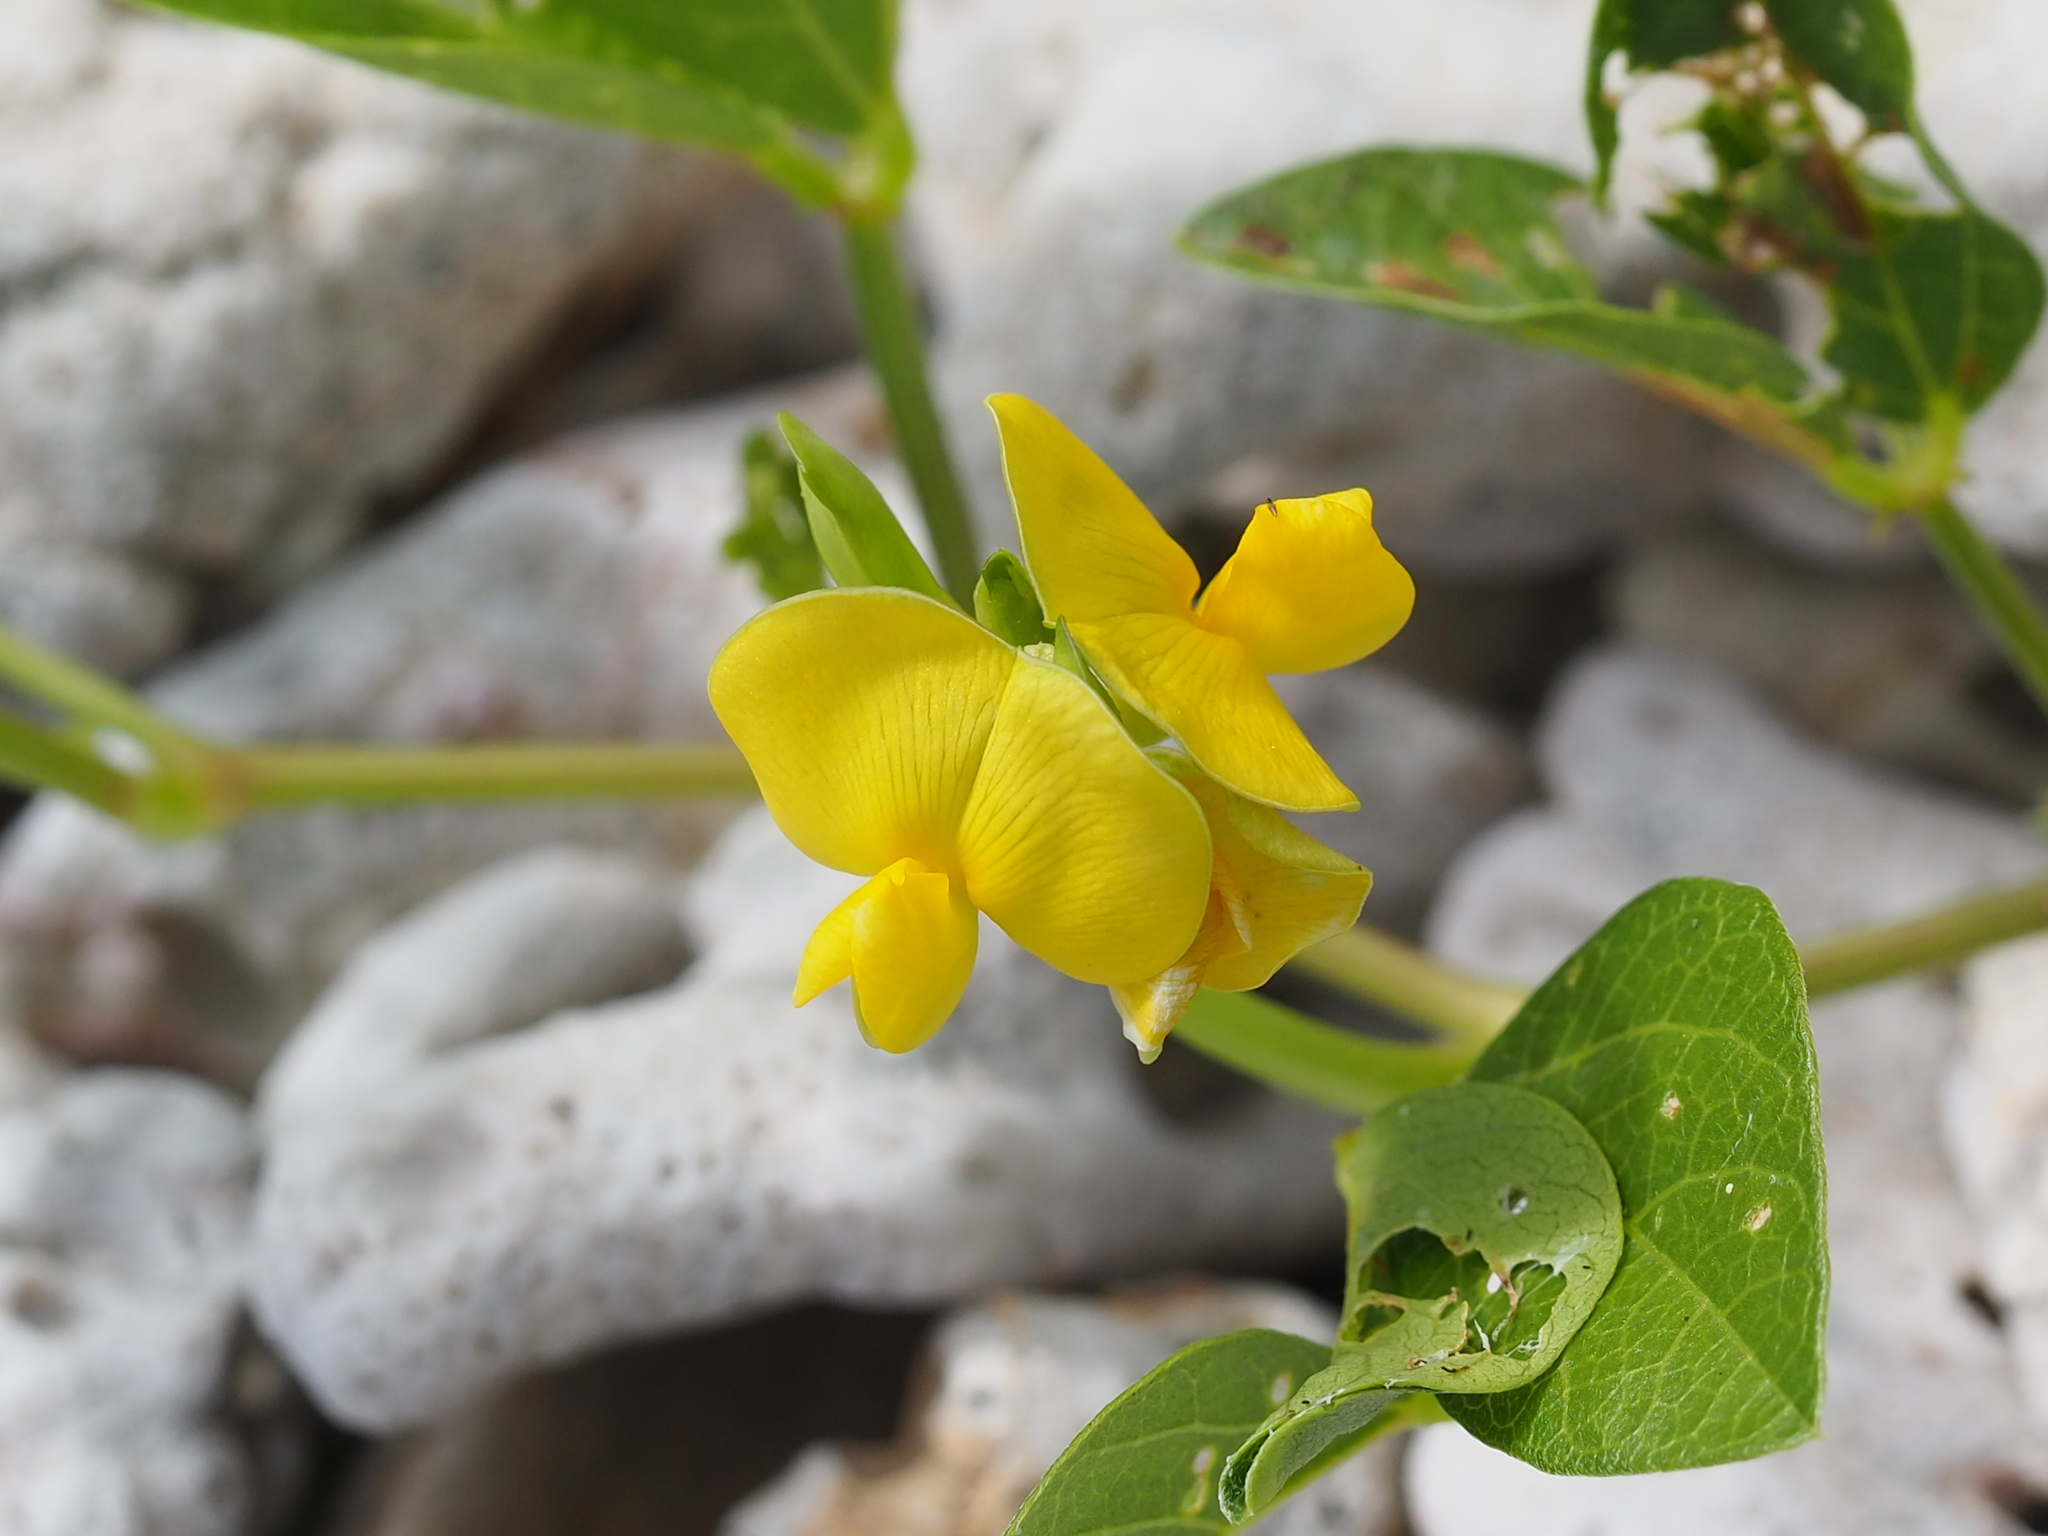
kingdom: Plantae
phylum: Tracheophyta
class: Magnoliopsida
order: Fabales
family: Fabaceae
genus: Vigna
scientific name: Vigna marina
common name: Dune-bean
